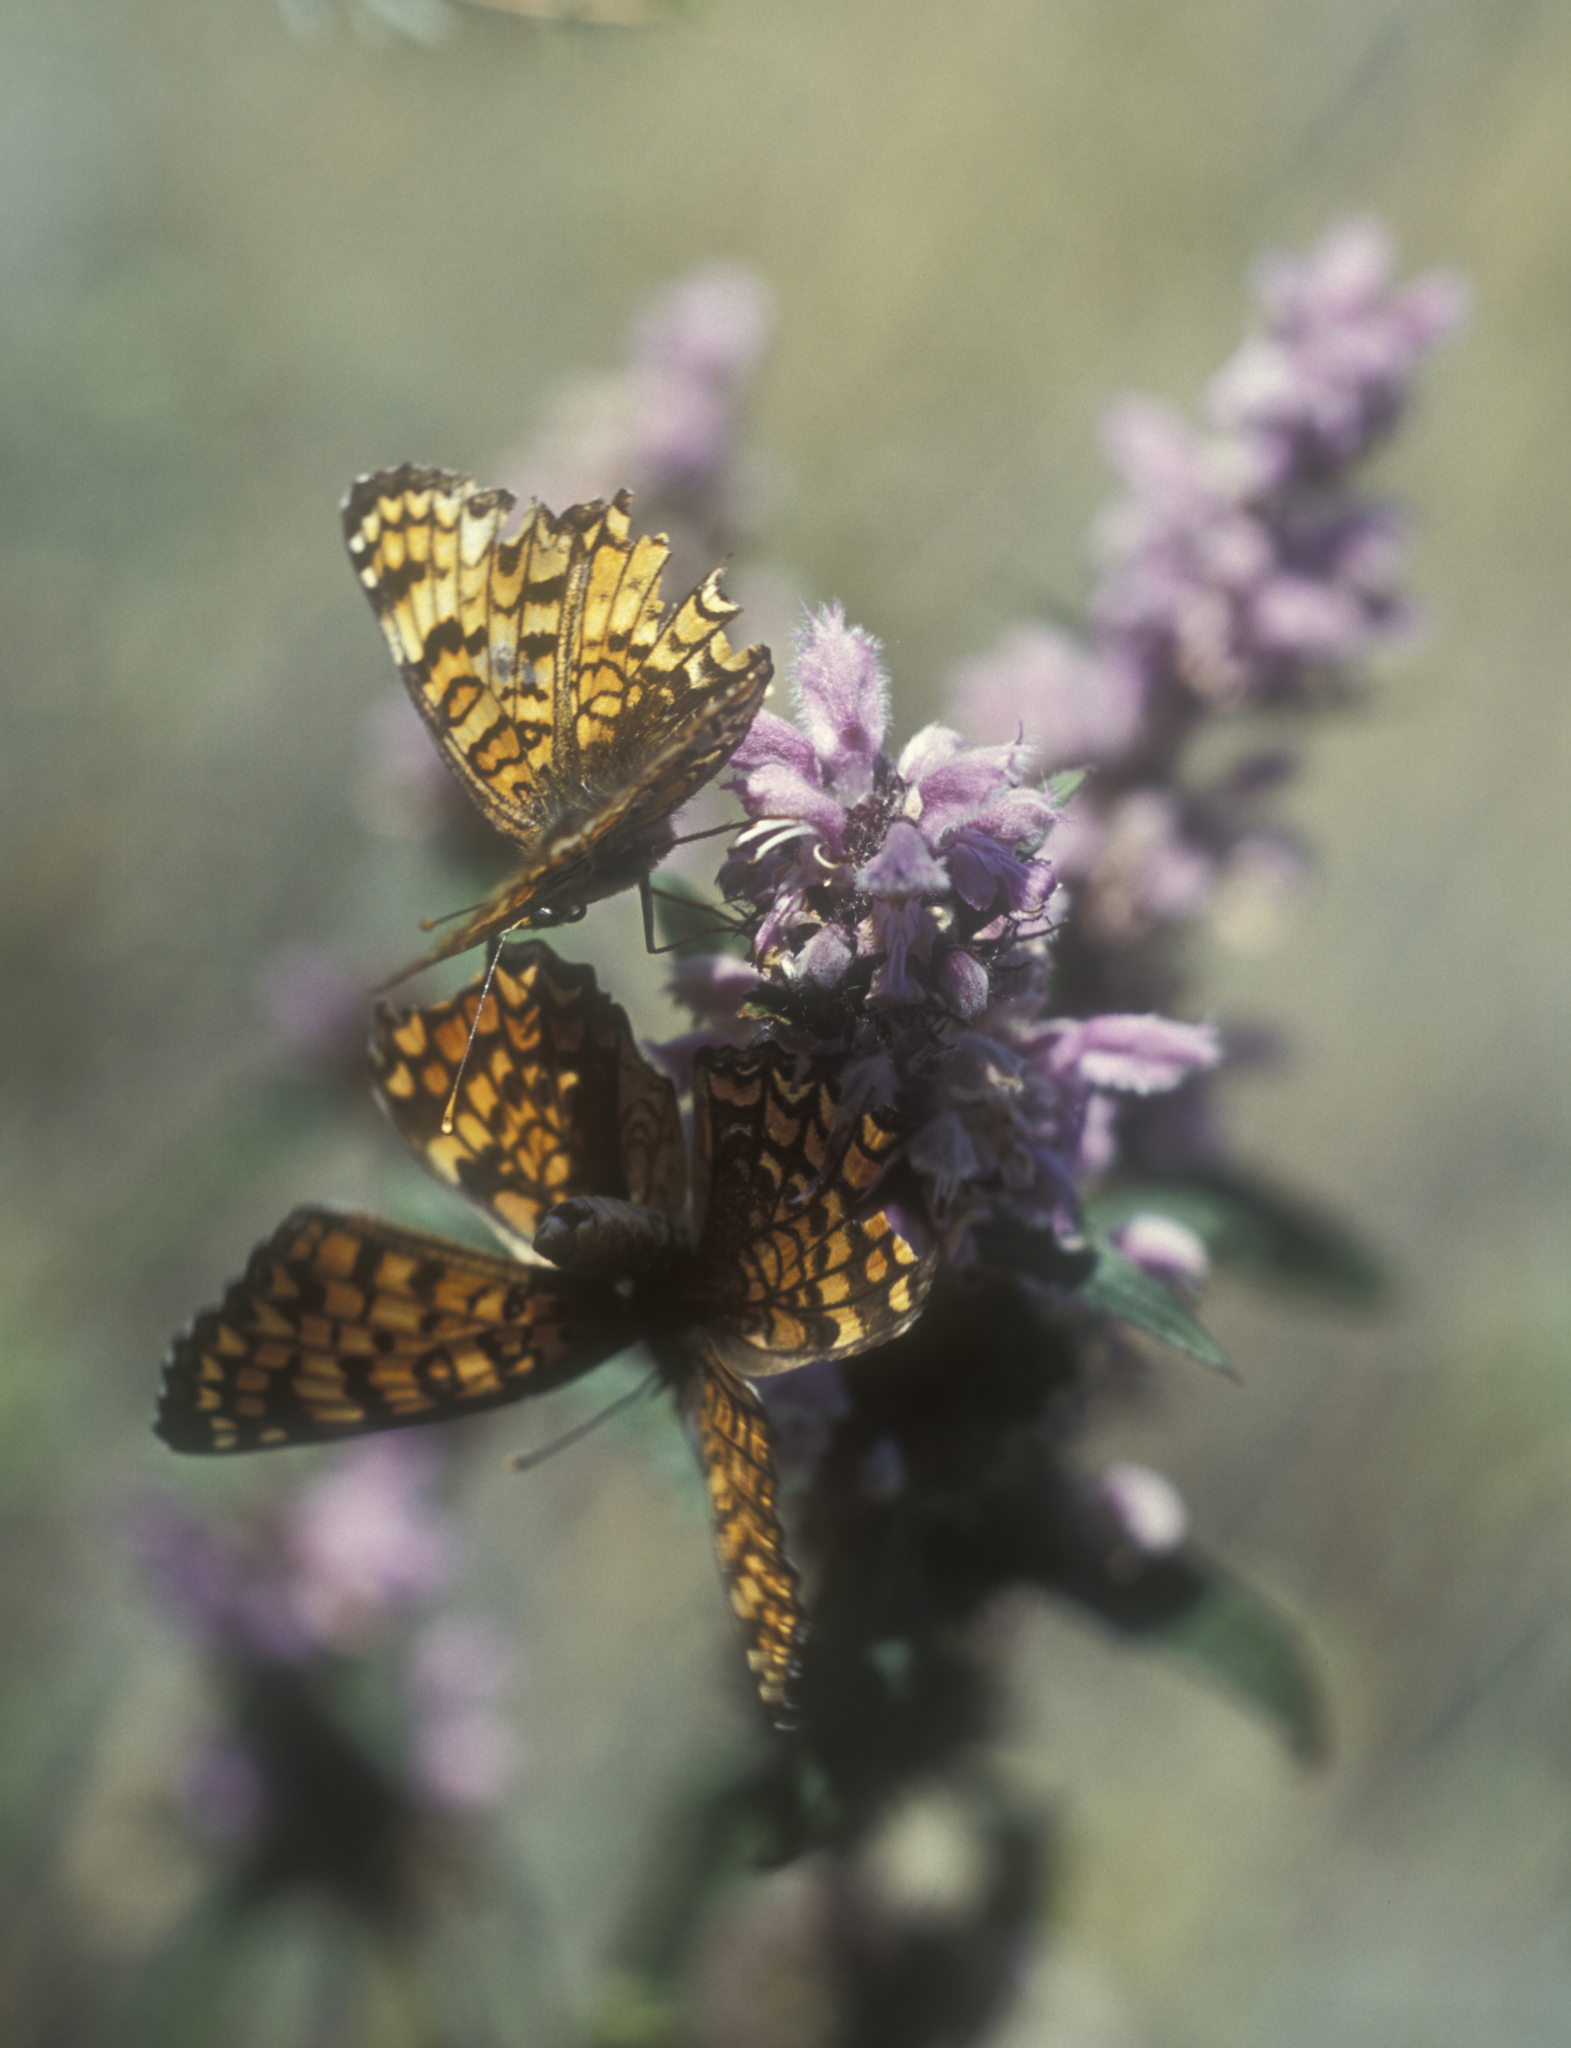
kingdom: Animalia
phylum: Arthropoda
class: Insecta
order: Lepidoptera
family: Nymphalidae
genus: Melitaea
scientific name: Melitaea phoebe
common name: Knapweed fritillary
